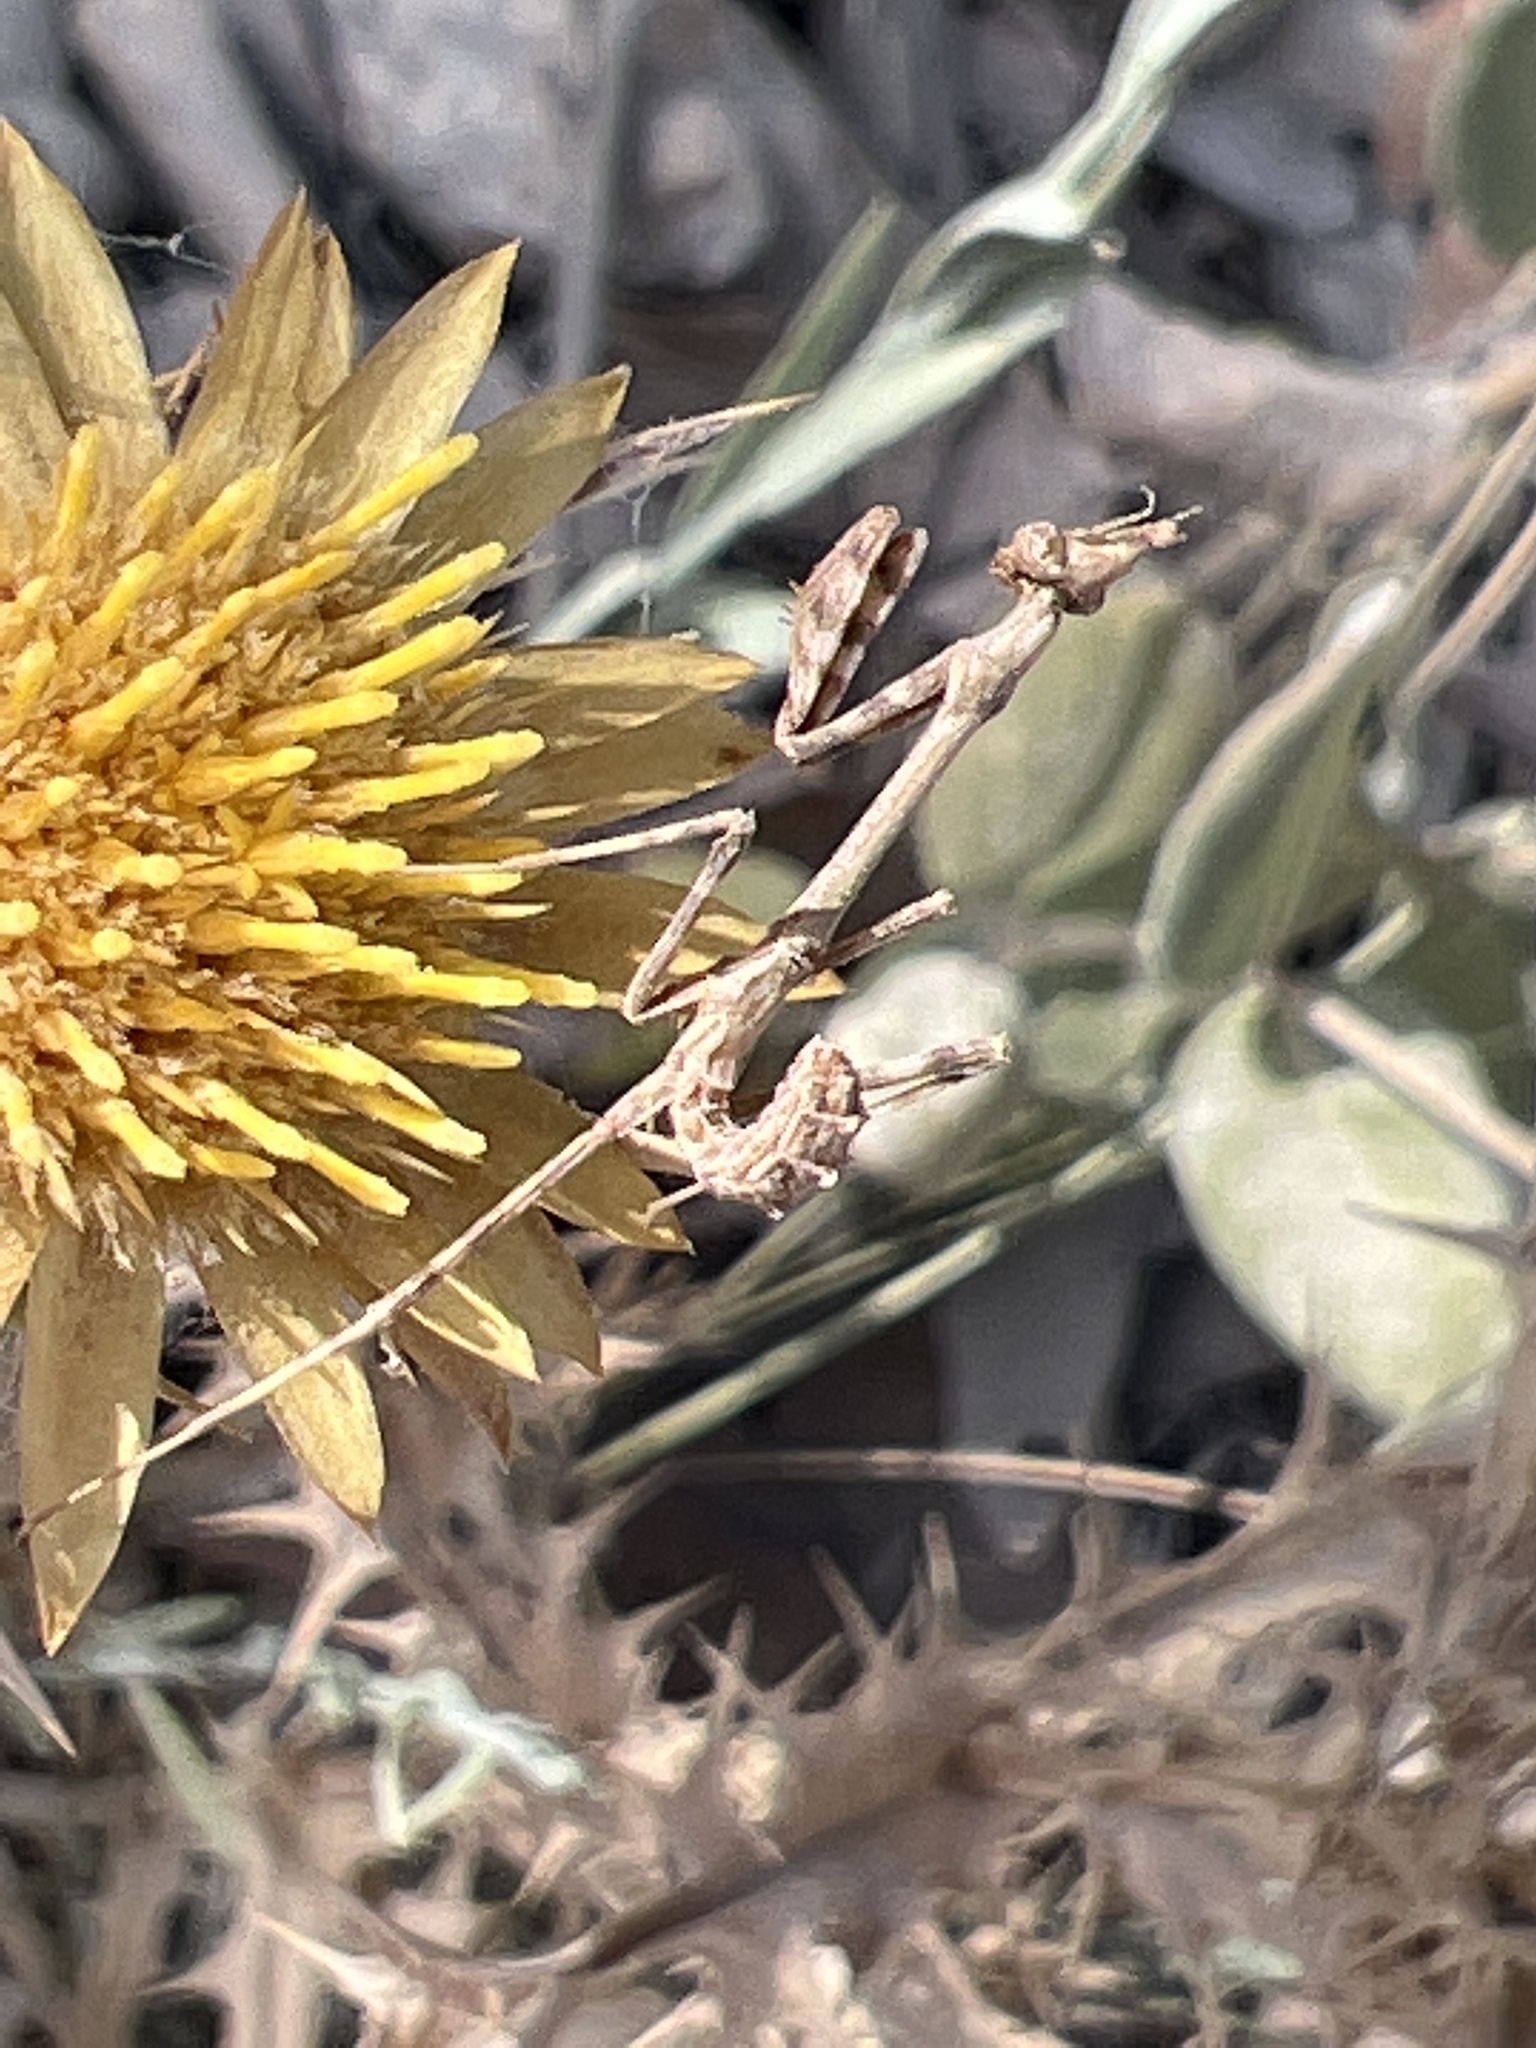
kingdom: Animalia
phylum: Arthropoda
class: Insecta
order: Mantodea
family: Empusidae
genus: Empusa
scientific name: Empusa pennata
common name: Conehead mantis
